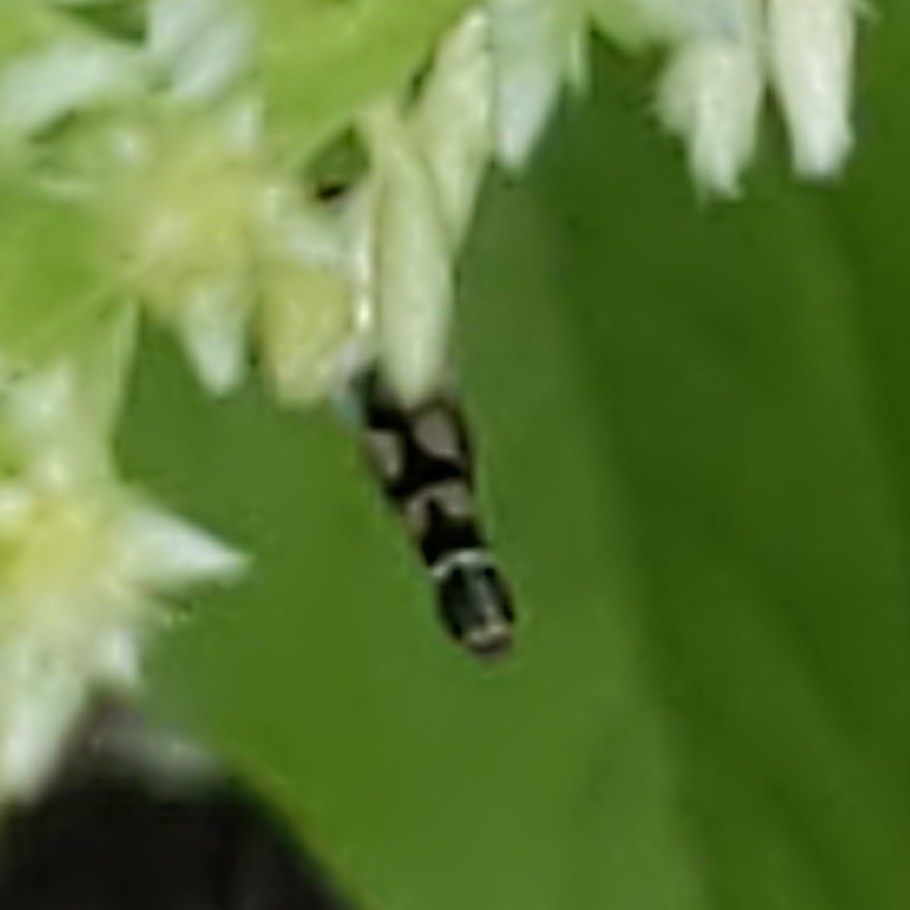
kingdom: Animalia
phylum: Arthropoda
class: Insecta
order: Diptera
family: Syrphidae
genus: Syritta
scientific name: Syritta pipiens
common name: Hover fly
